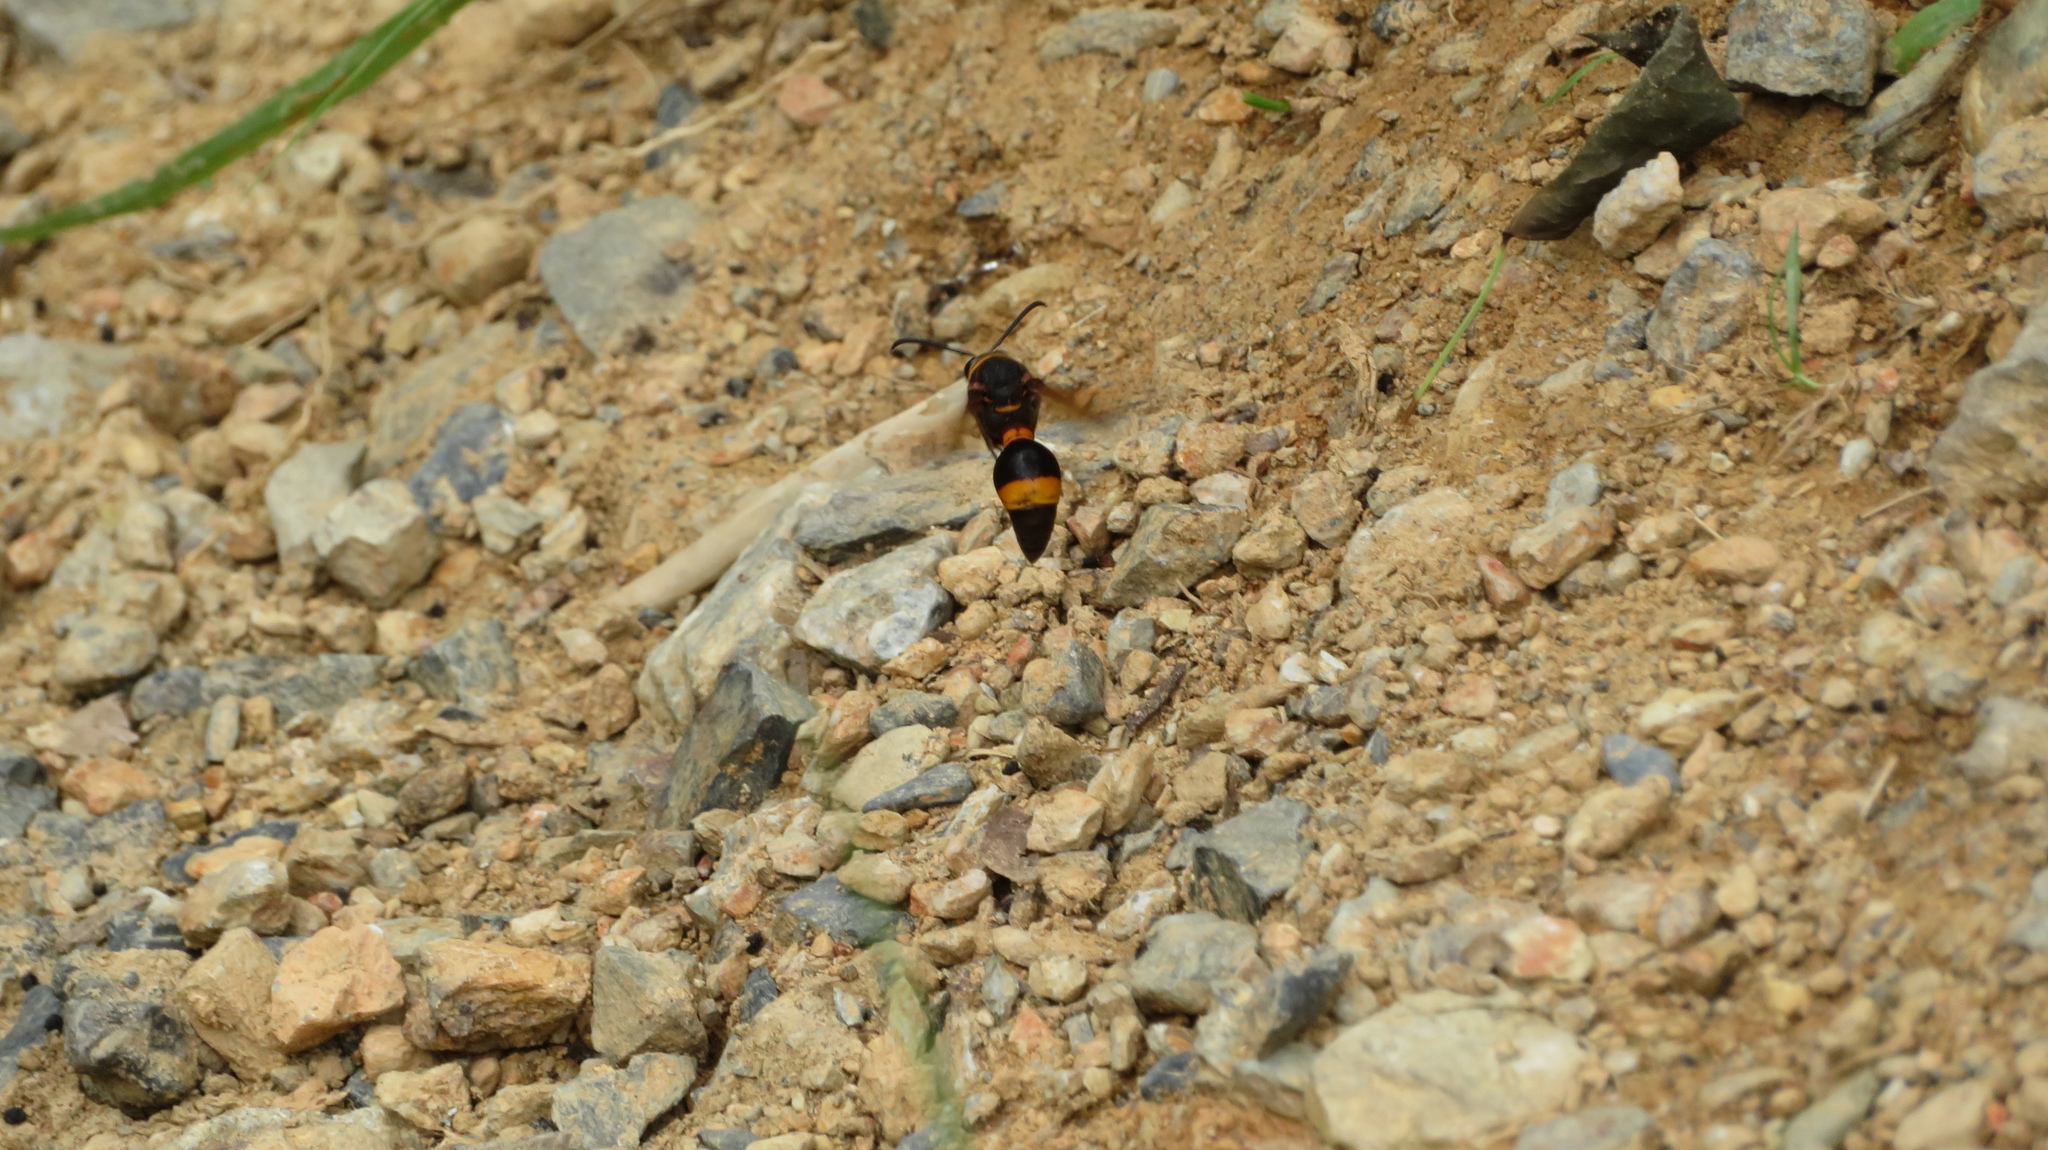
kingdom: Animalia
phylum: Arthropoda
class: Insecta
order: Hymenoptera
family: Eumenidae
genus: Oreumenes
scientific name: Oreumenes decoratus
